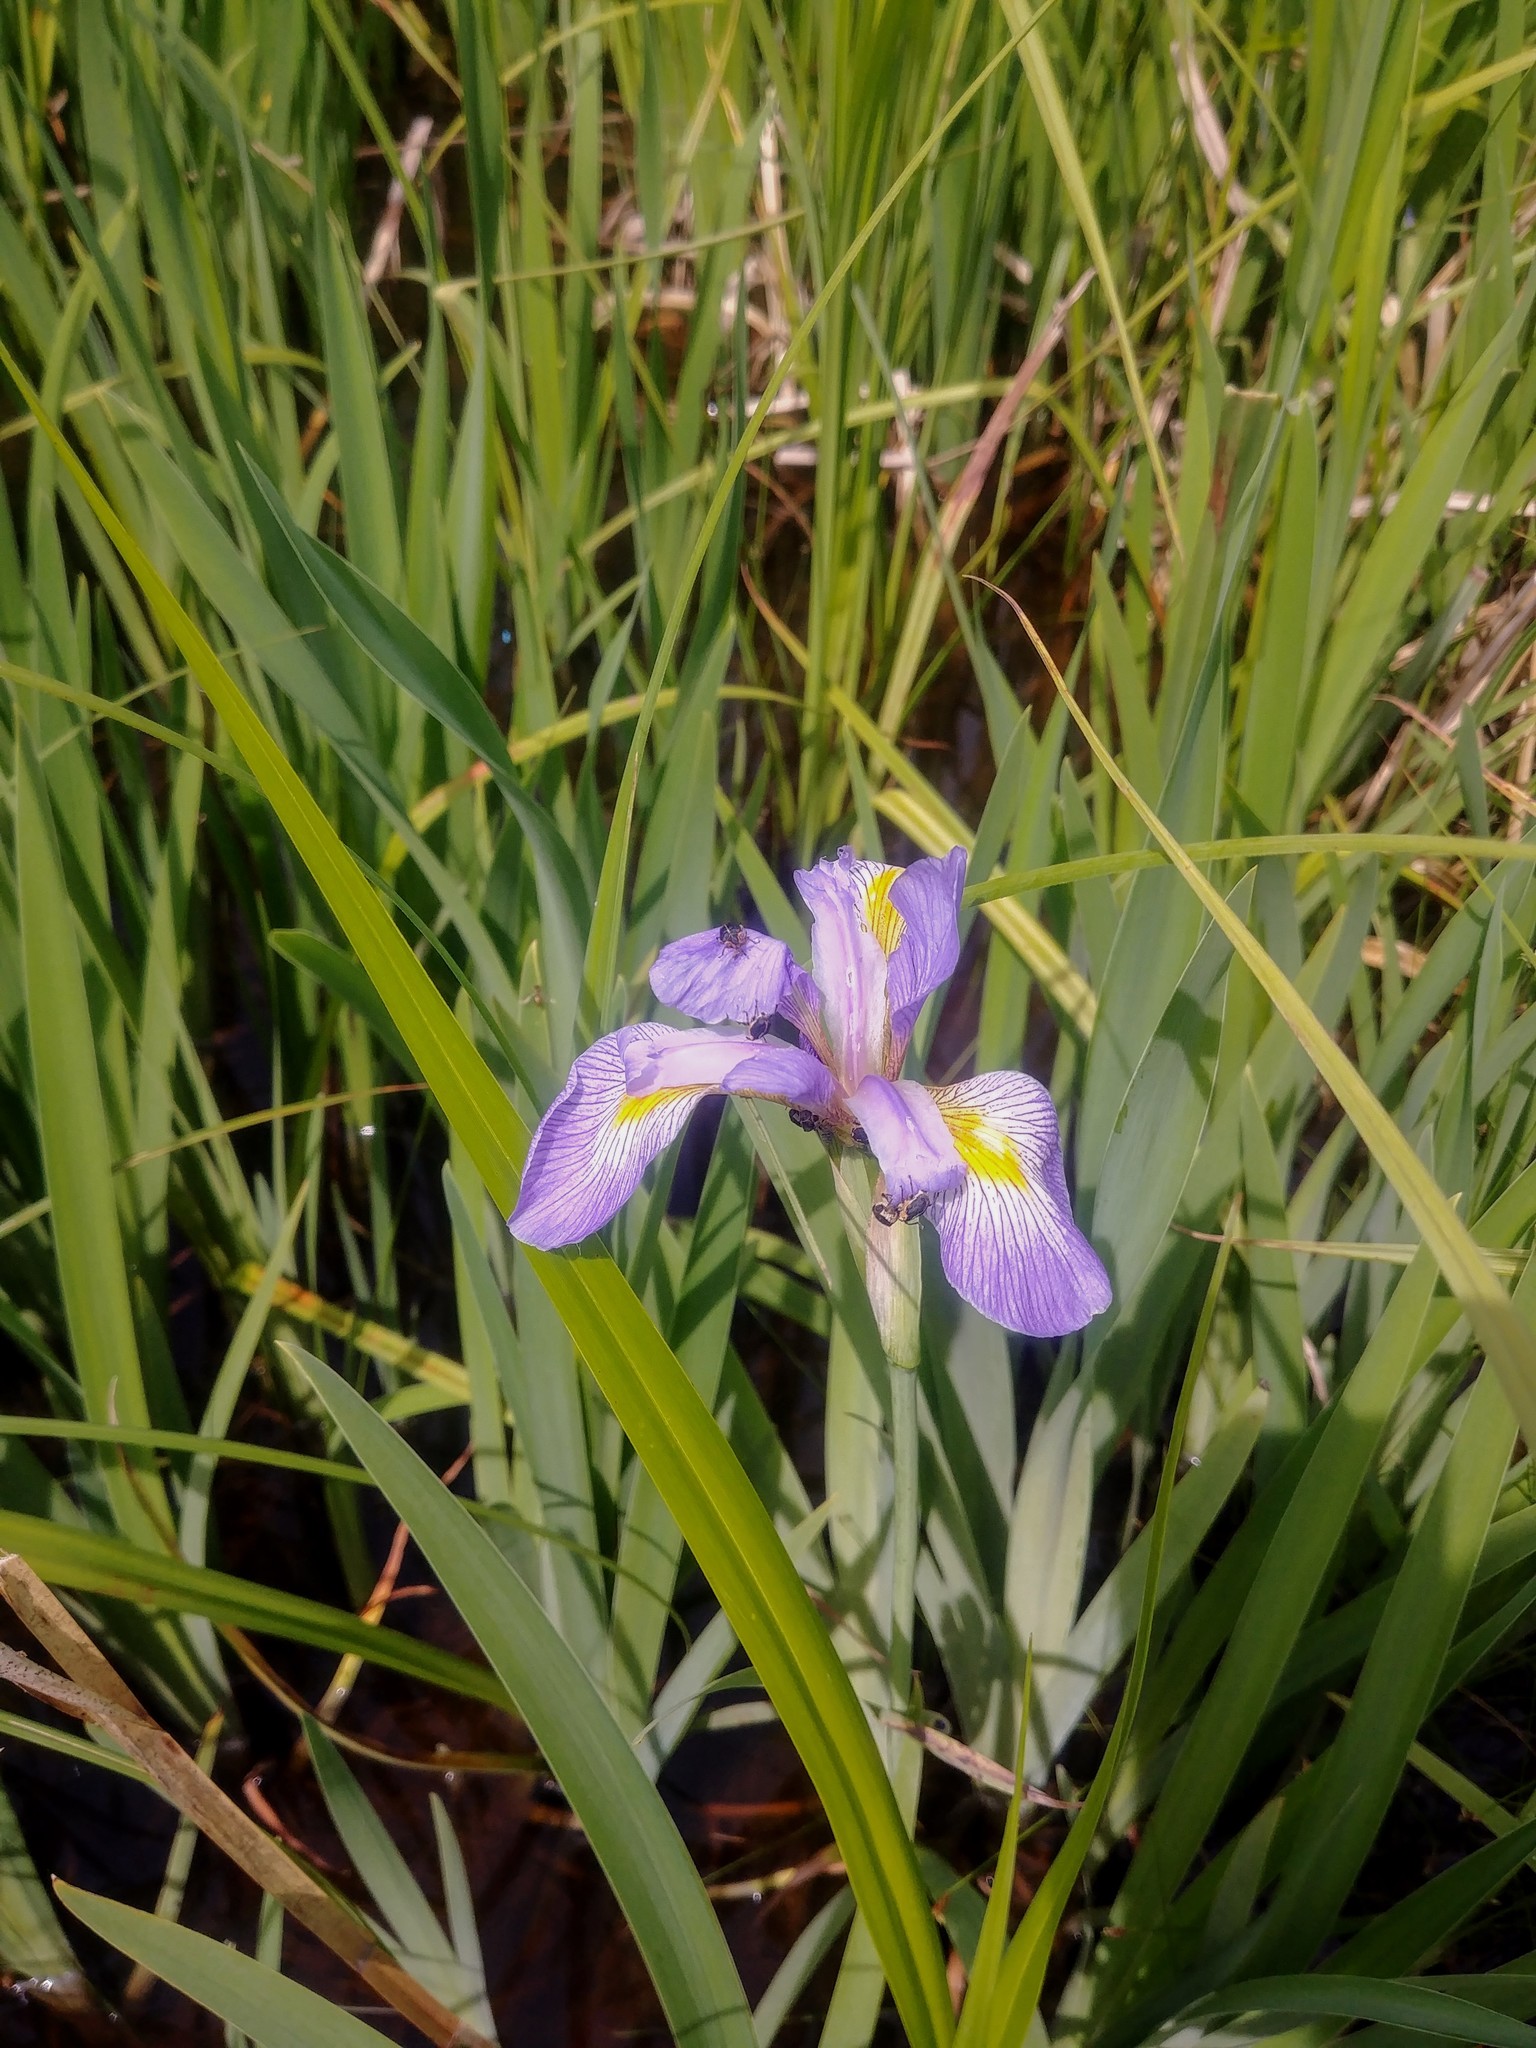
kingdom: Plantae
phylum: Tracheophyta
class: Liliopsida
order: Asparagales
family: Iridaceae
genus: Iris
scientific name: Iris virginica
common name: Southern blue flag
